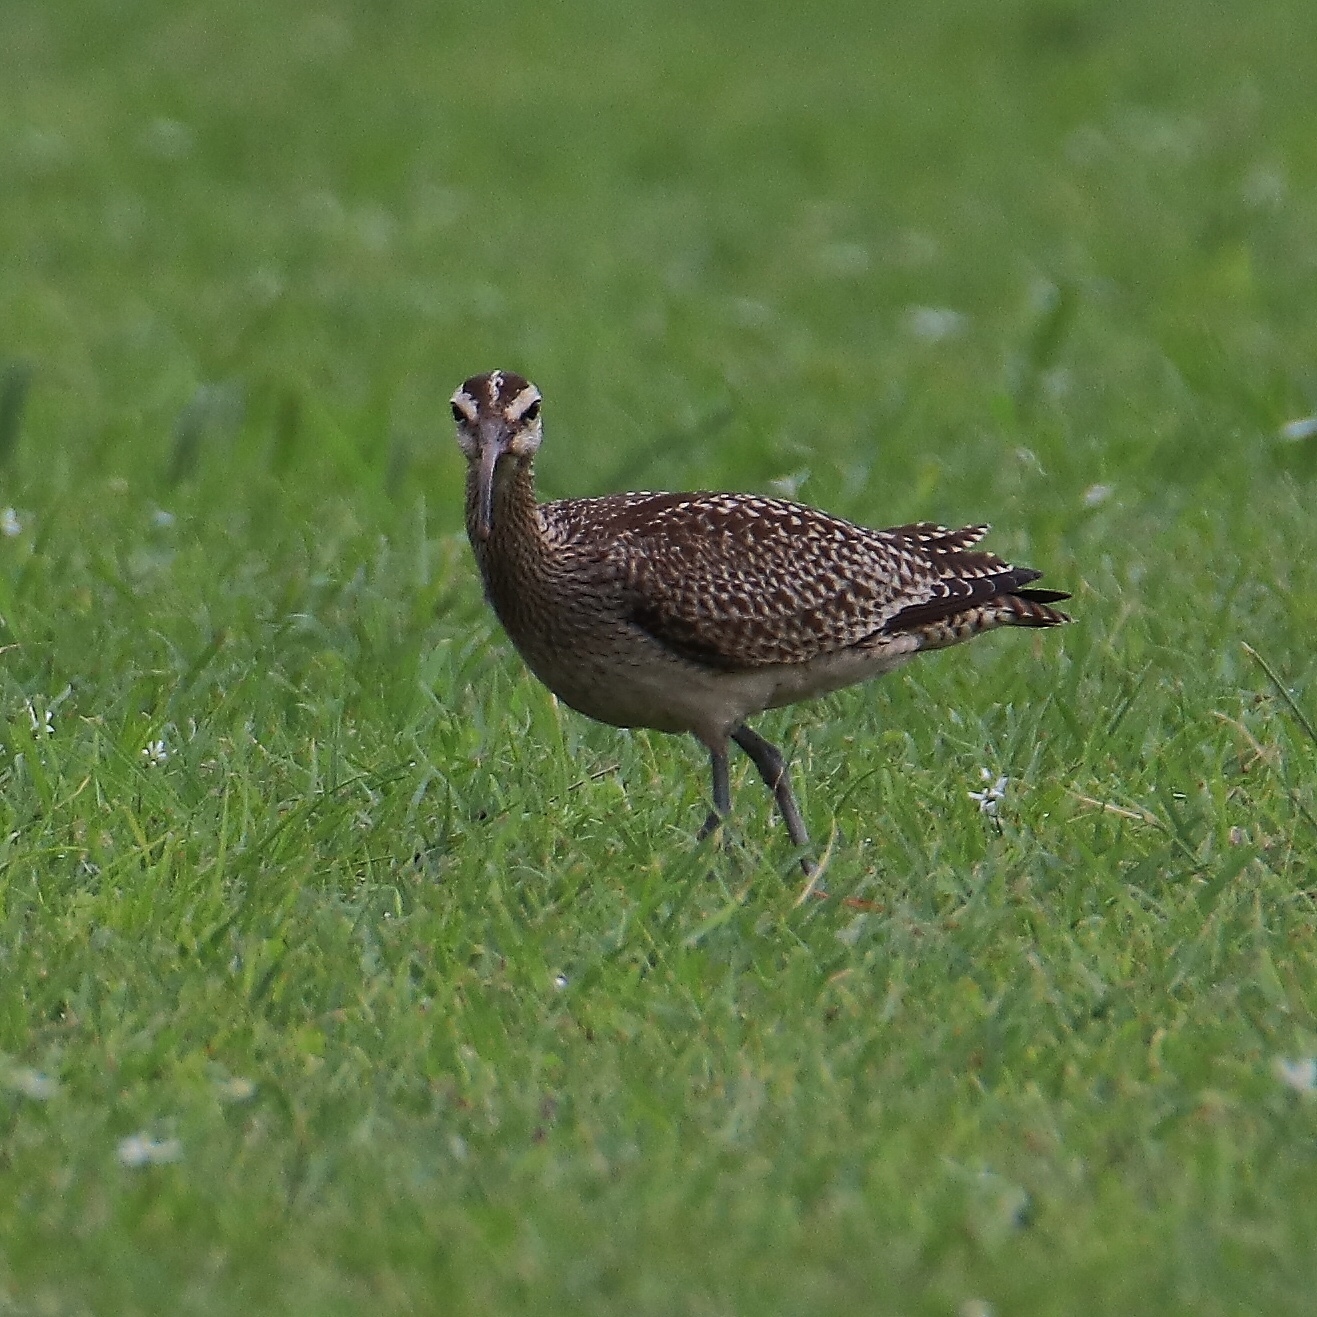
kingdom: Animalia
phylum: Chordata
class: Aves
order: Charadriiformes
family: Scolopacidae
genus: Numenius
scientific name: Numenius phaeopus
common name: Whimbrel
